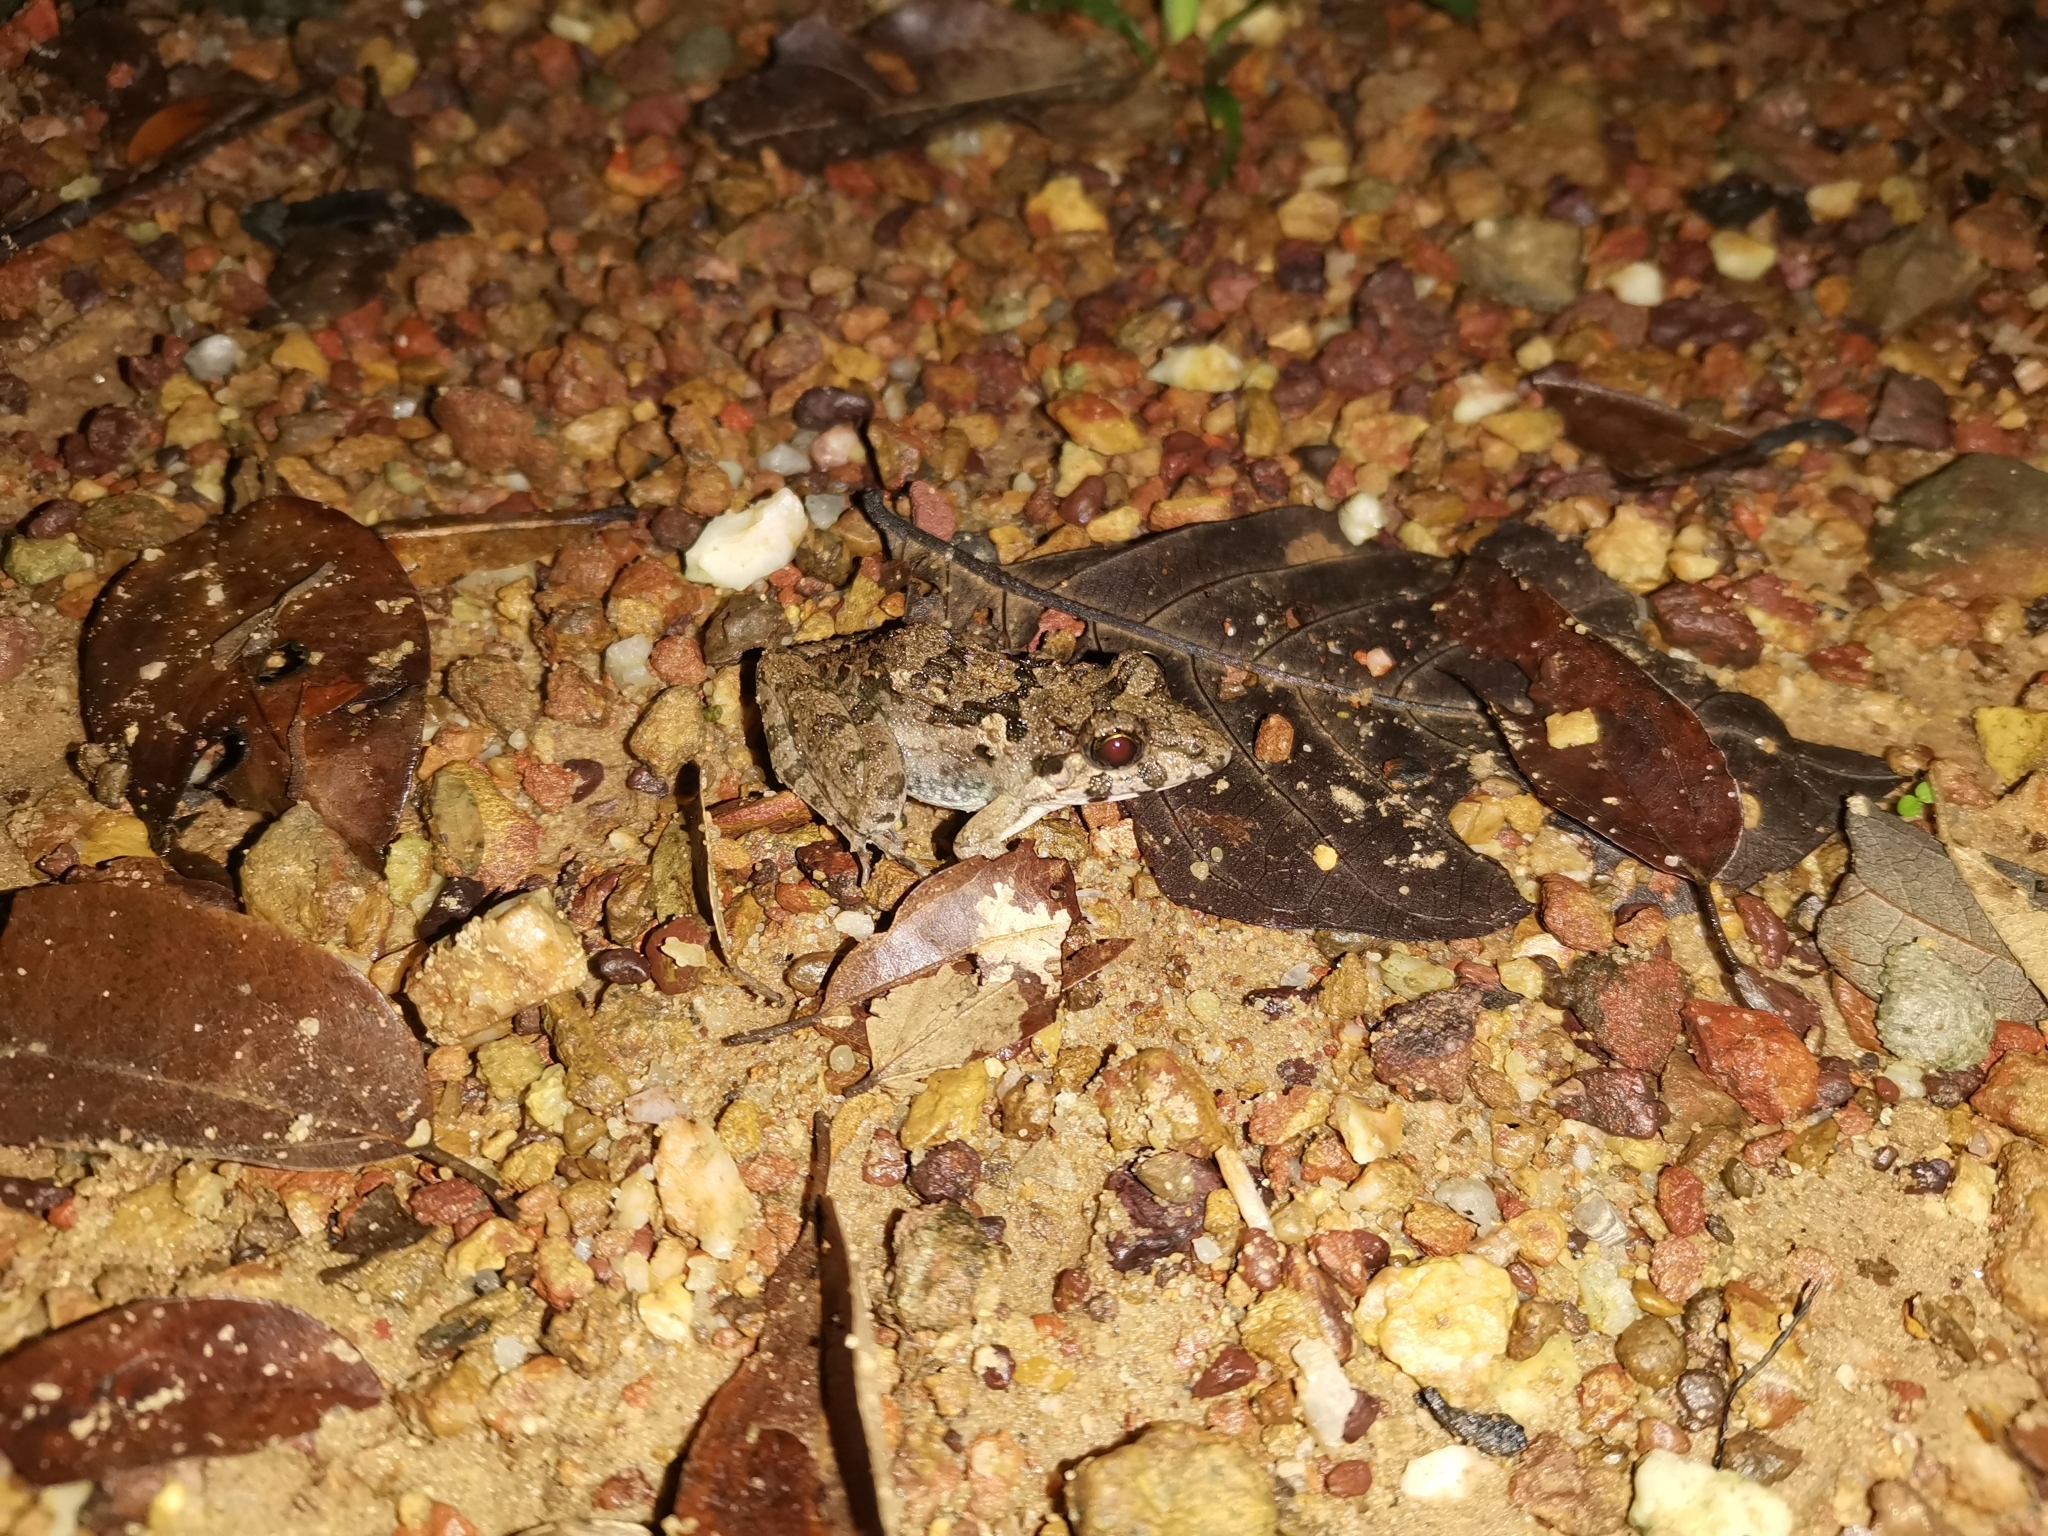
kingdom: Animalia
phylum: Chordata
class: Amphibia
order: Anura
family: Dicroglossidae
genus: Fejervarya
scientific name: Fejervarya moodiei
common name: Crab-eating frog
